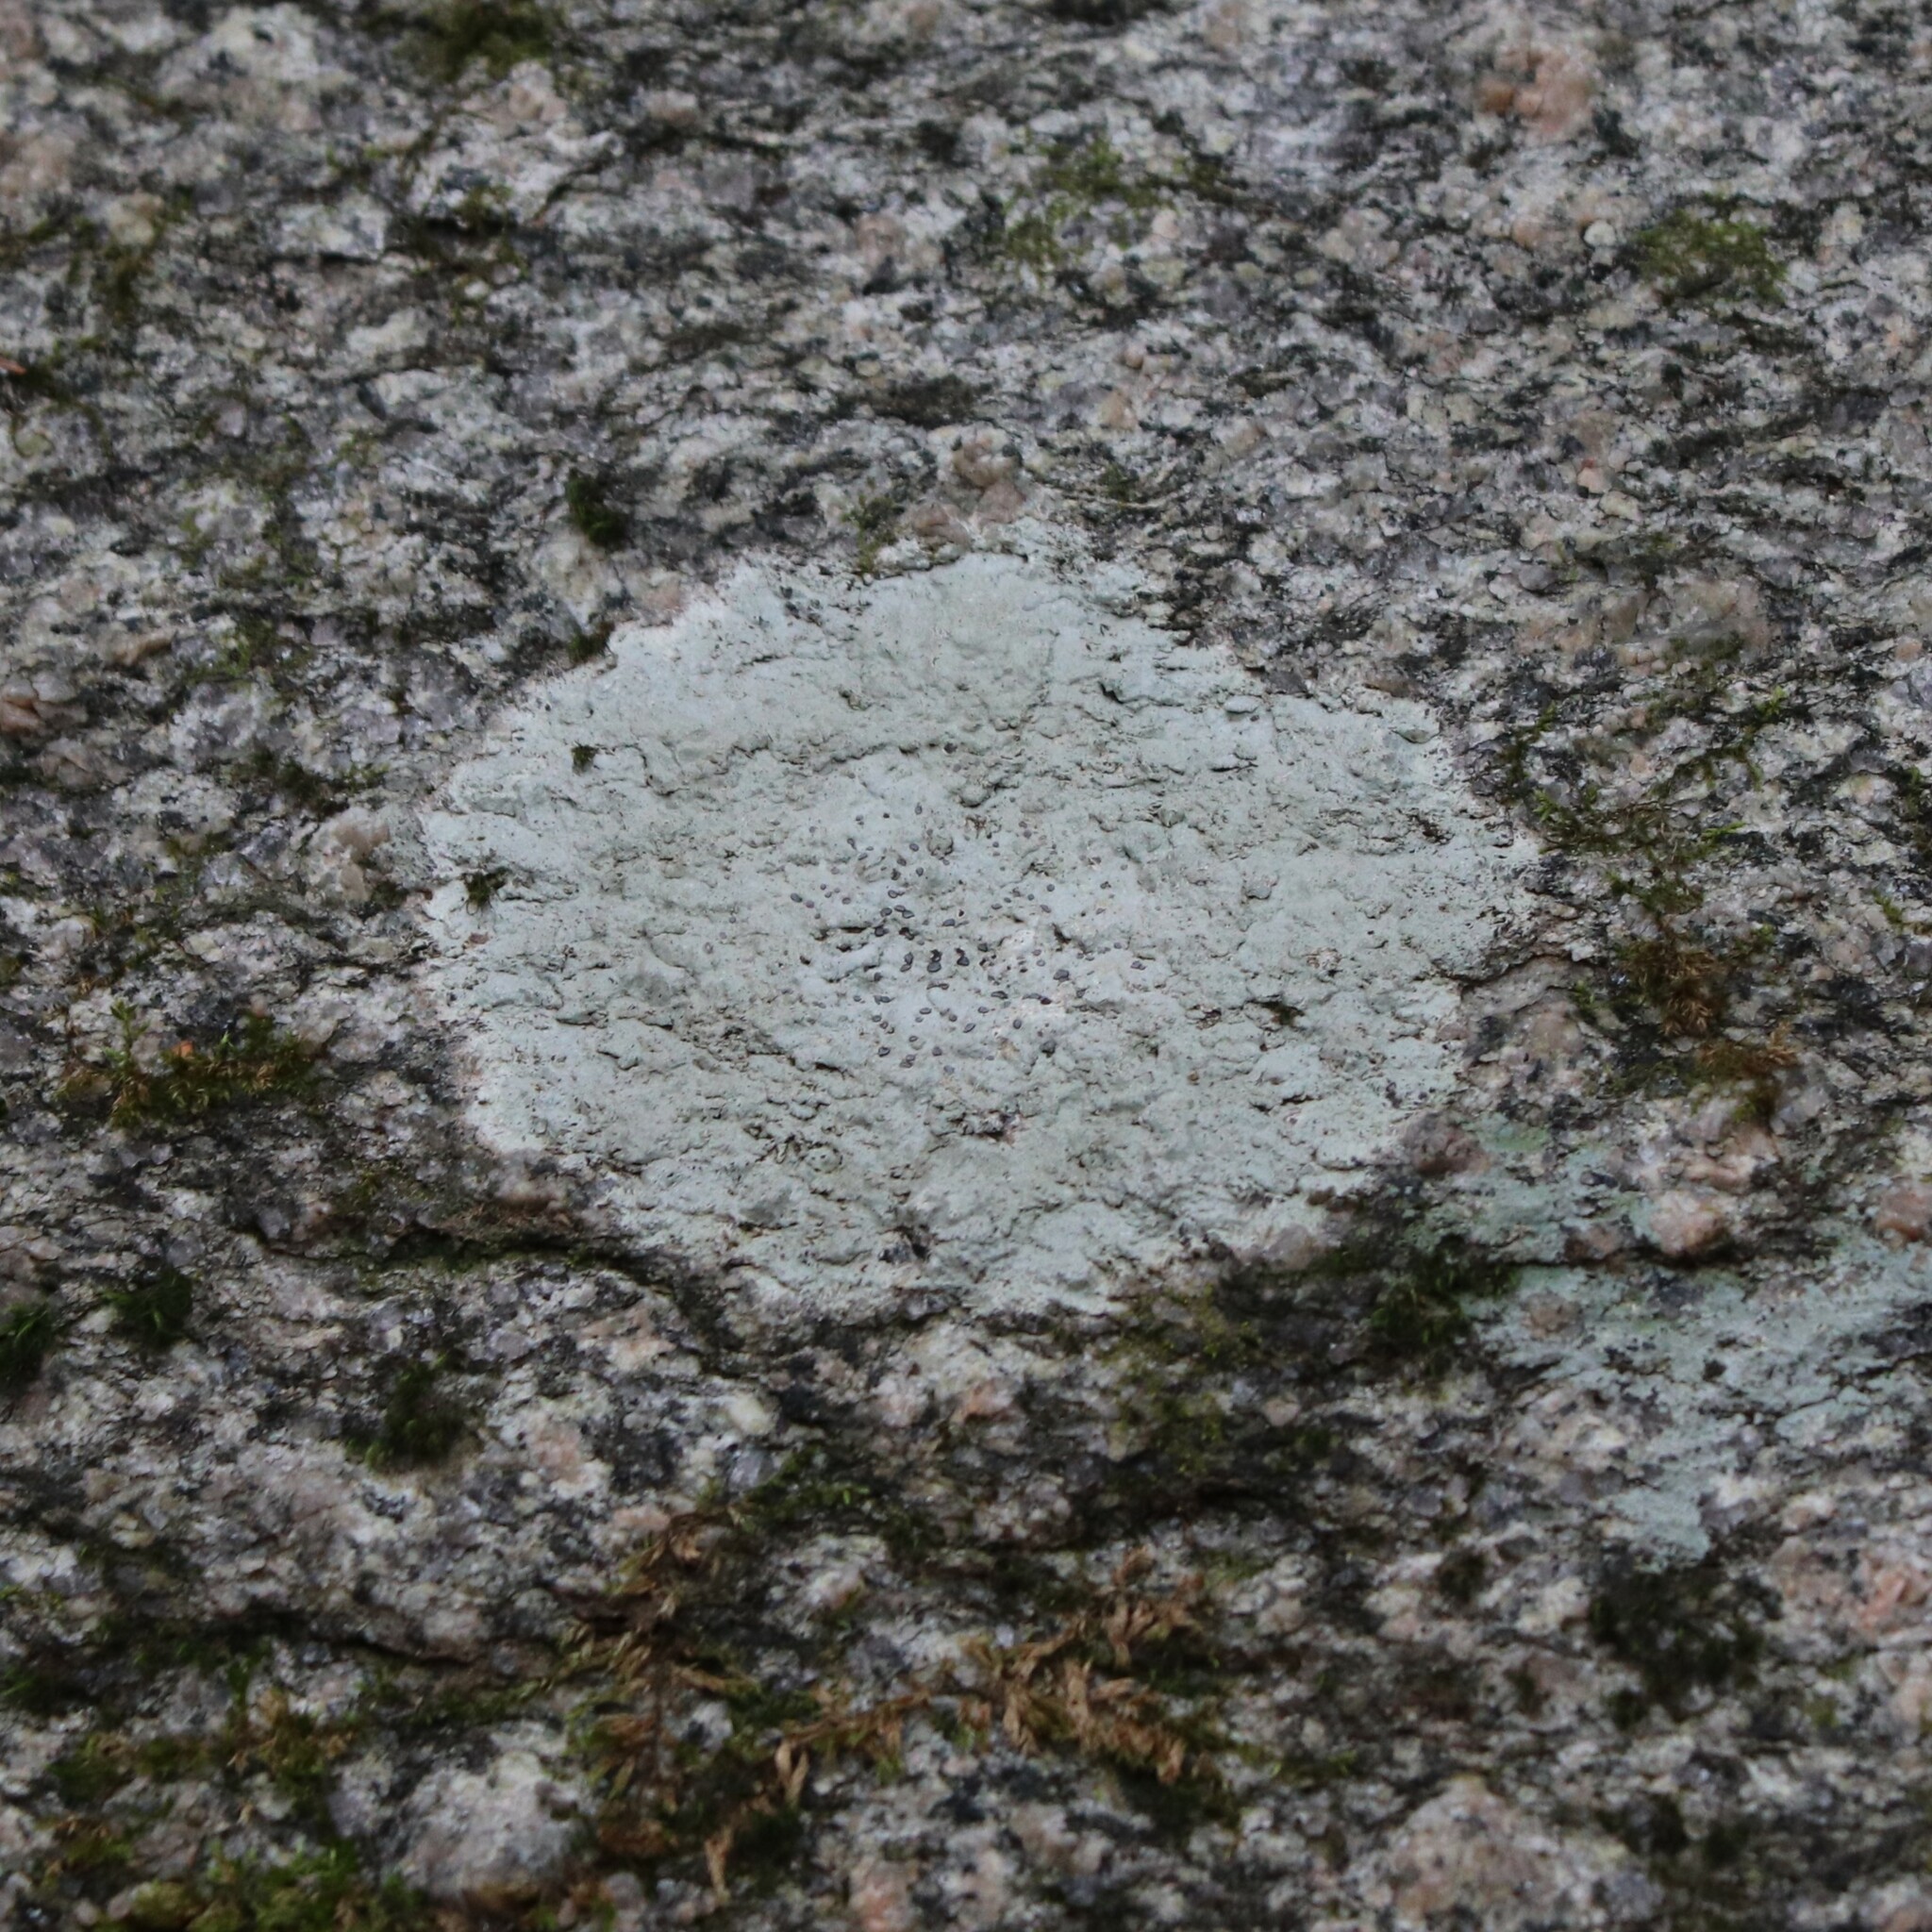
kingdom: Fungi
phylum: Ascomycota
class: Lecanoromycetes
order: Lecideales
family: Lecideaceae
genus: Porpidia
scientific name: Porpidia albocaerulescens
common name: Smokey-eyed boulder lichen
